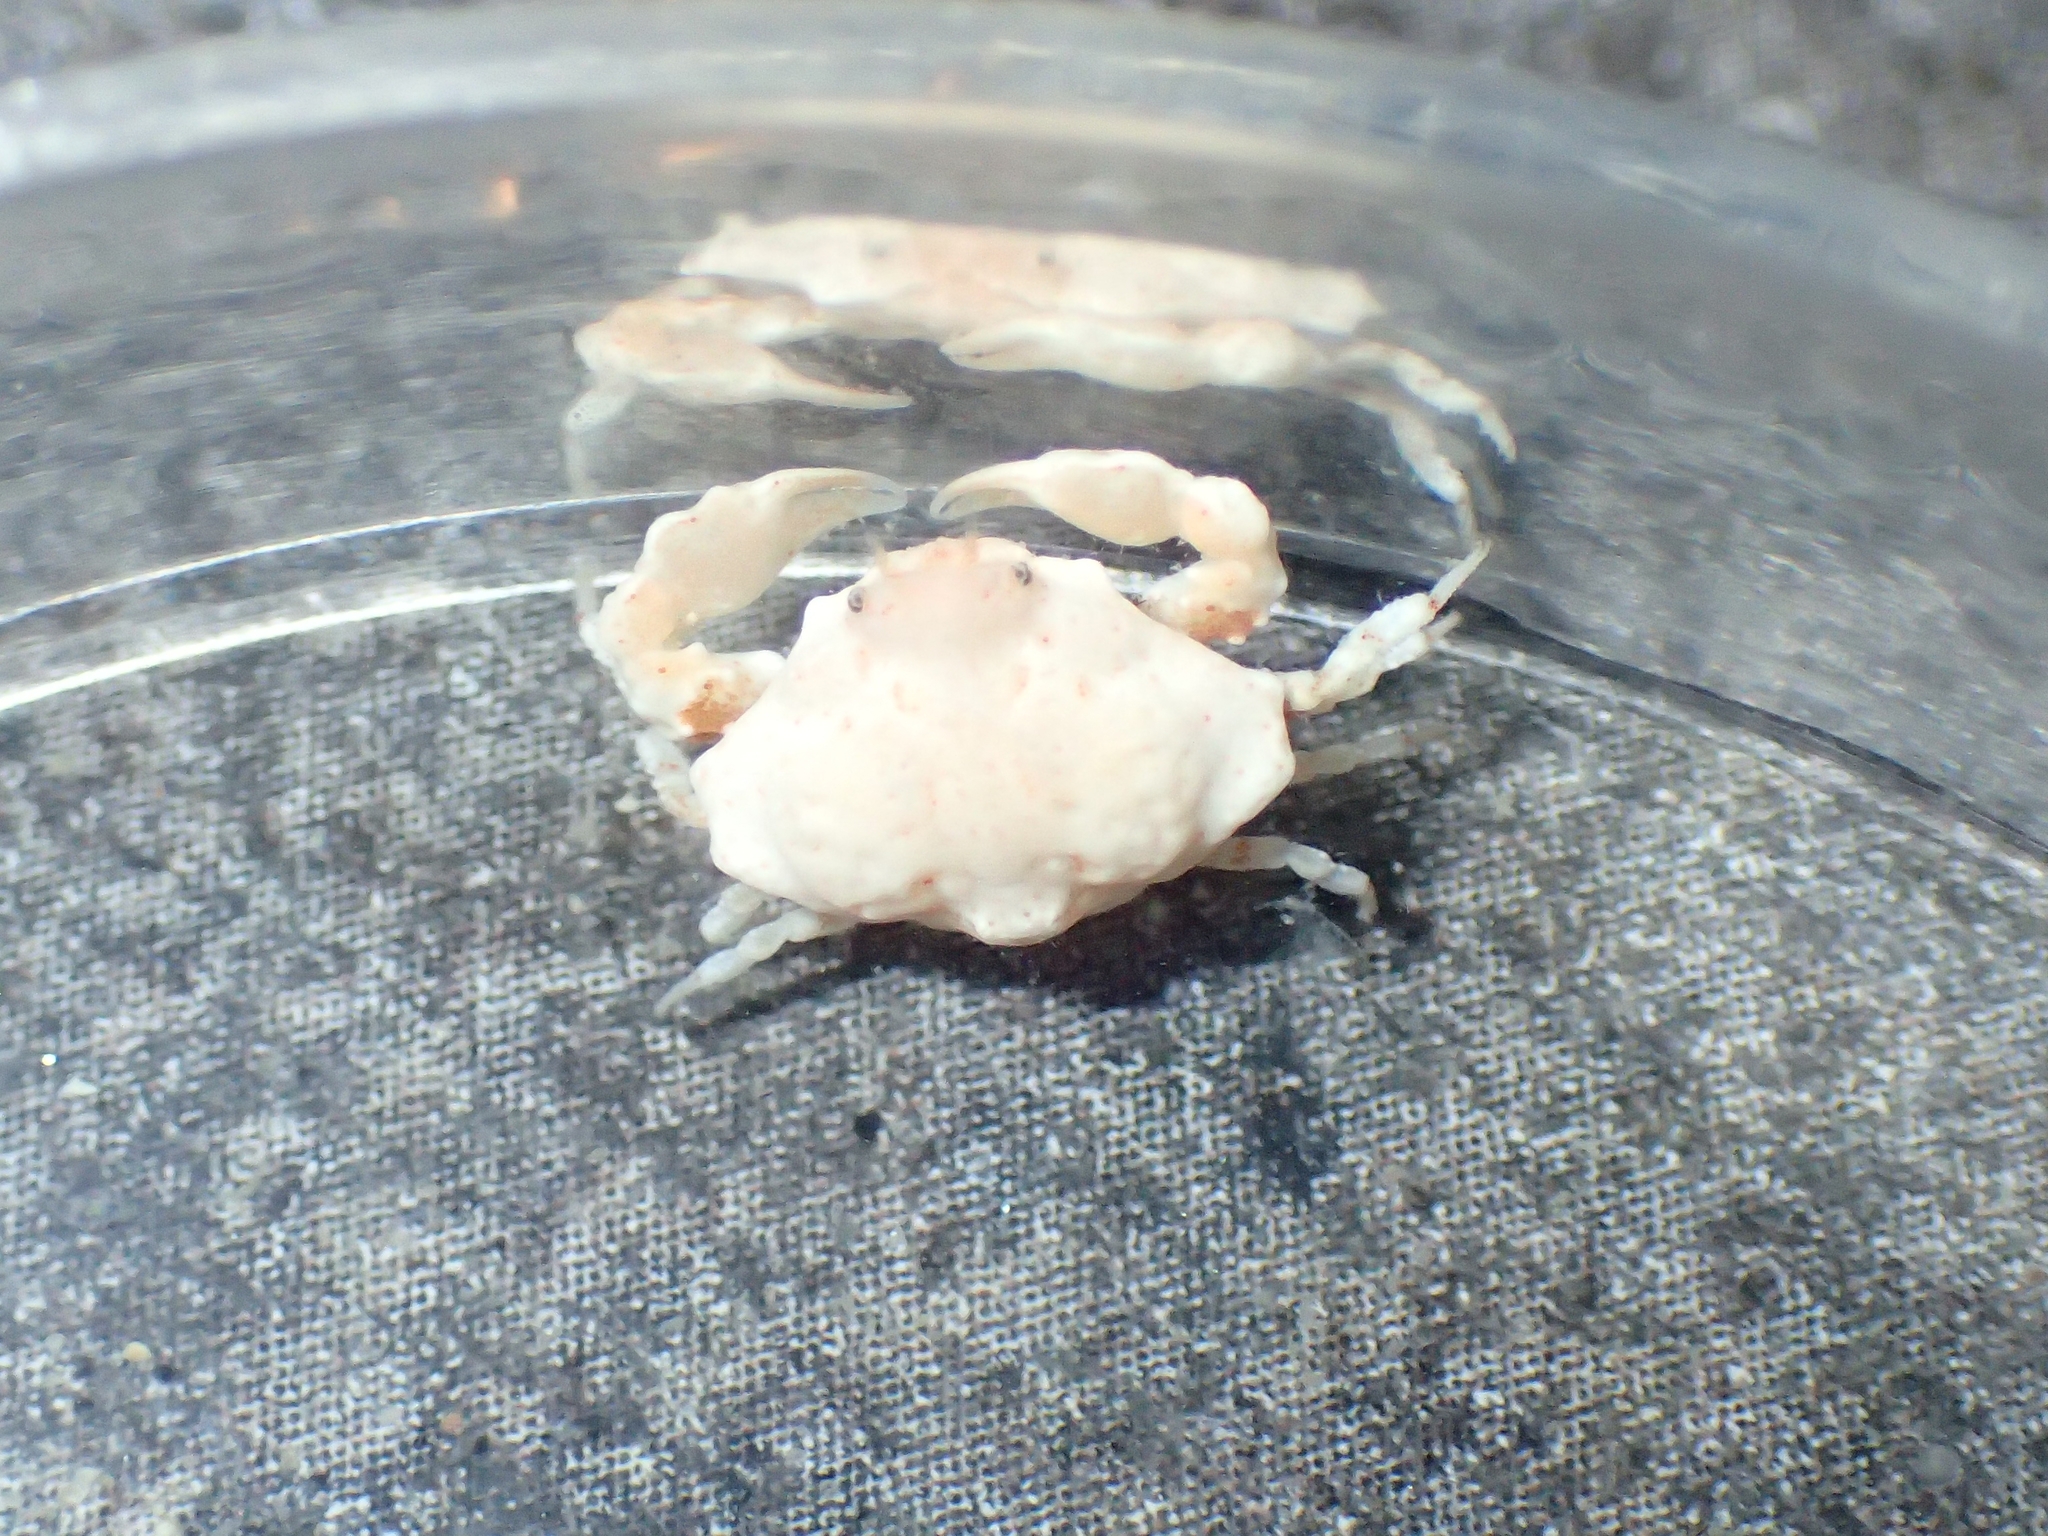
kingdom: Animalia
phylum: Arthropoda
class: Malacostraca
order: Decapoda
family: Leucosiidae
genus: Ebalia
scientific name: Ebalia tumefacta
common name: Bryer's nut crab
